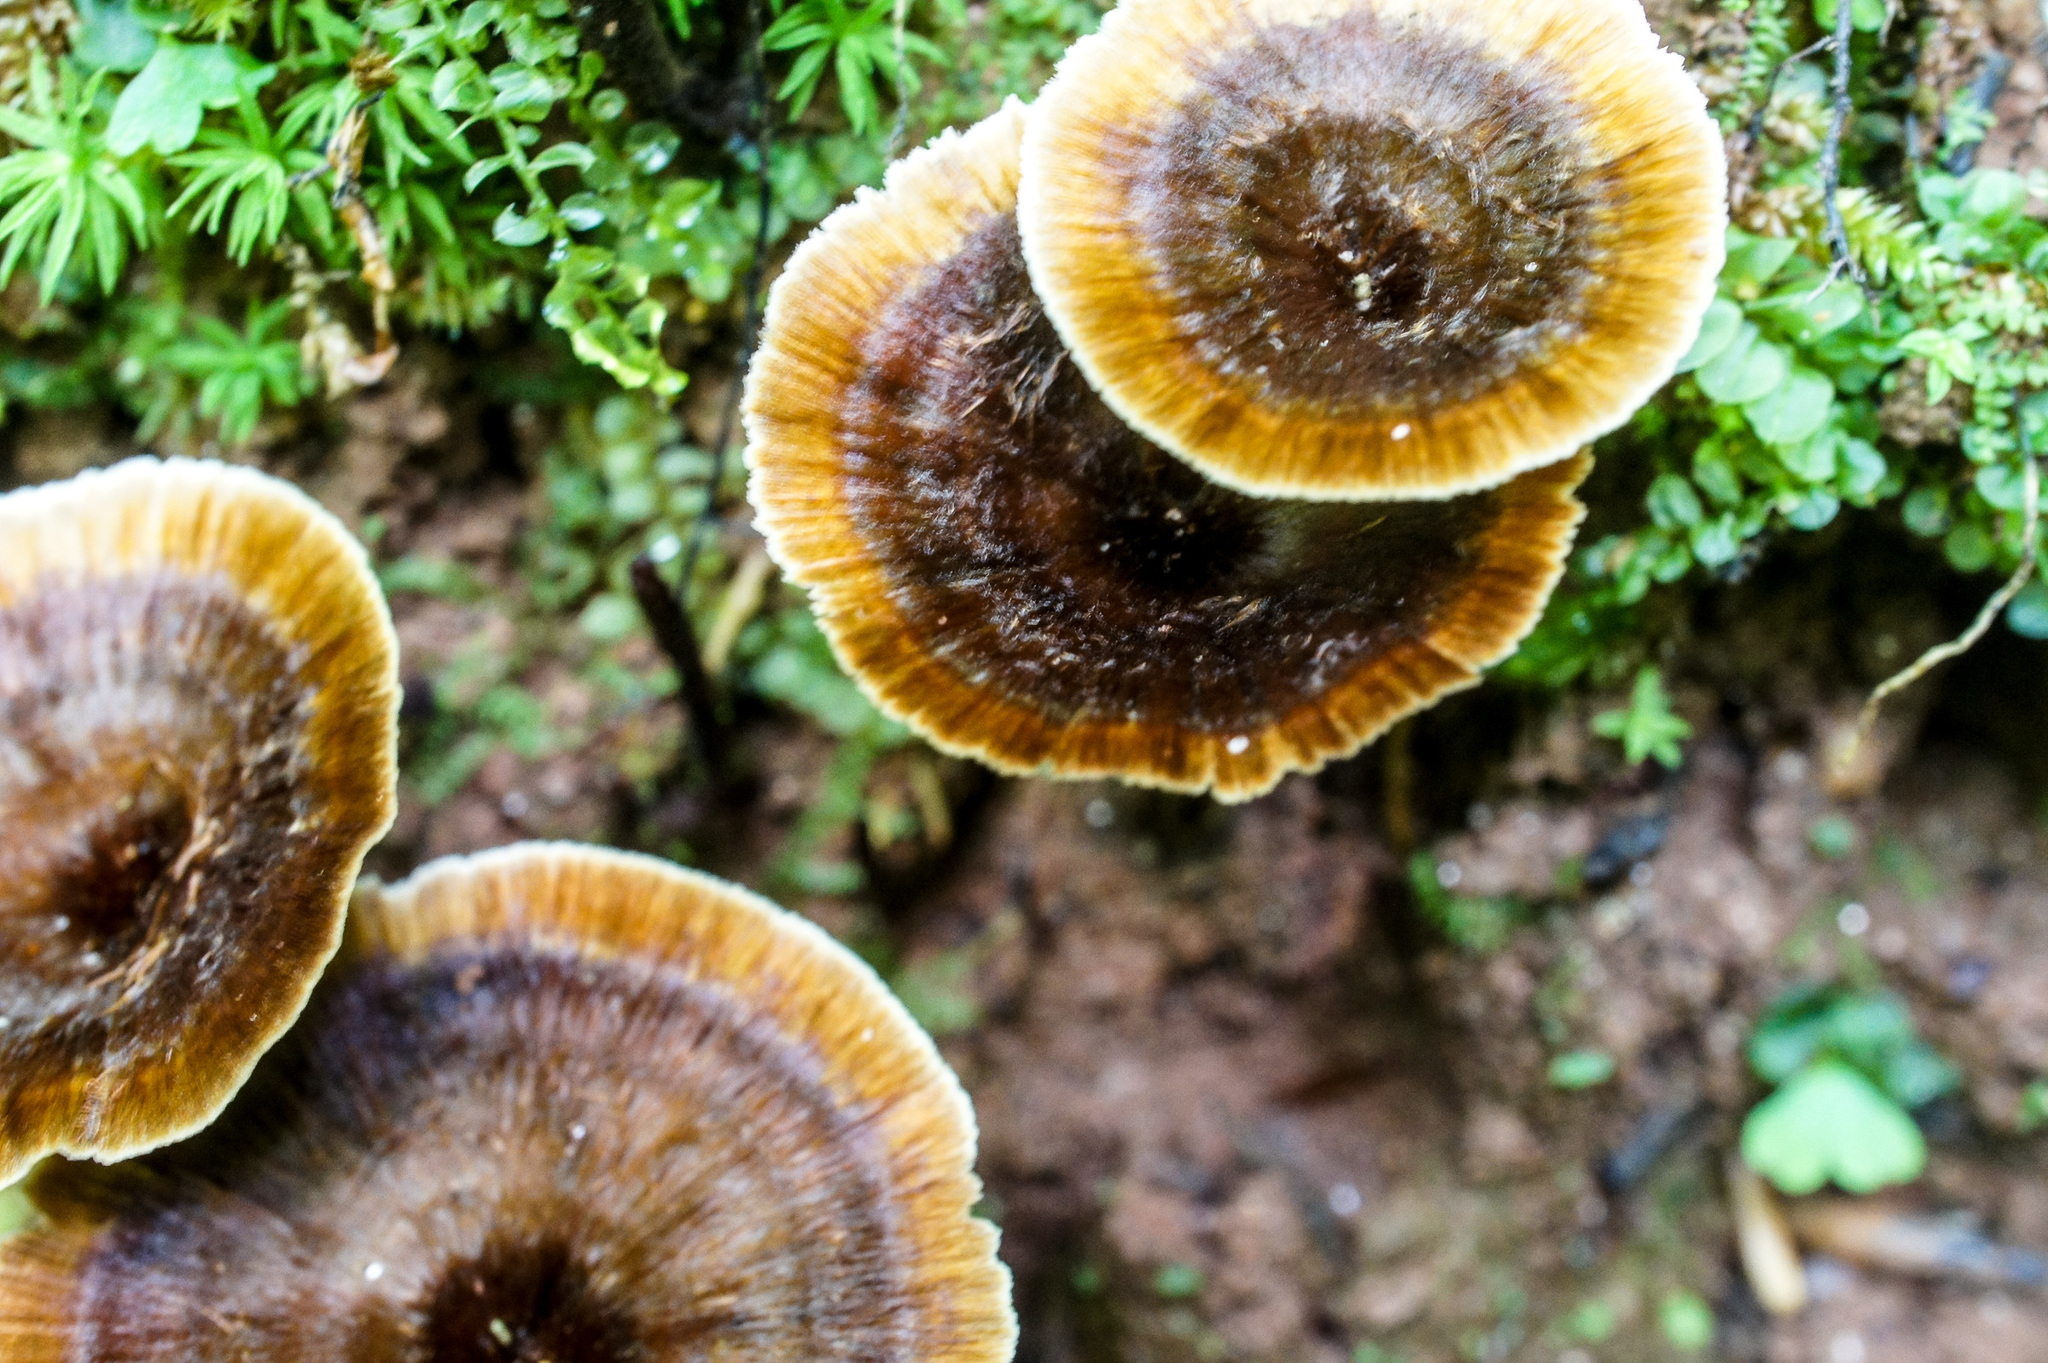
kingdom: Fungi
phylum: Basidiomycota
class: Agaricomycetes
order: Hymenochaetales
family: Hymenochaetaceae
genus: Coltricia
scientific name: Coltricia cinnamomea
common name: Shiny cinnamon polypore
